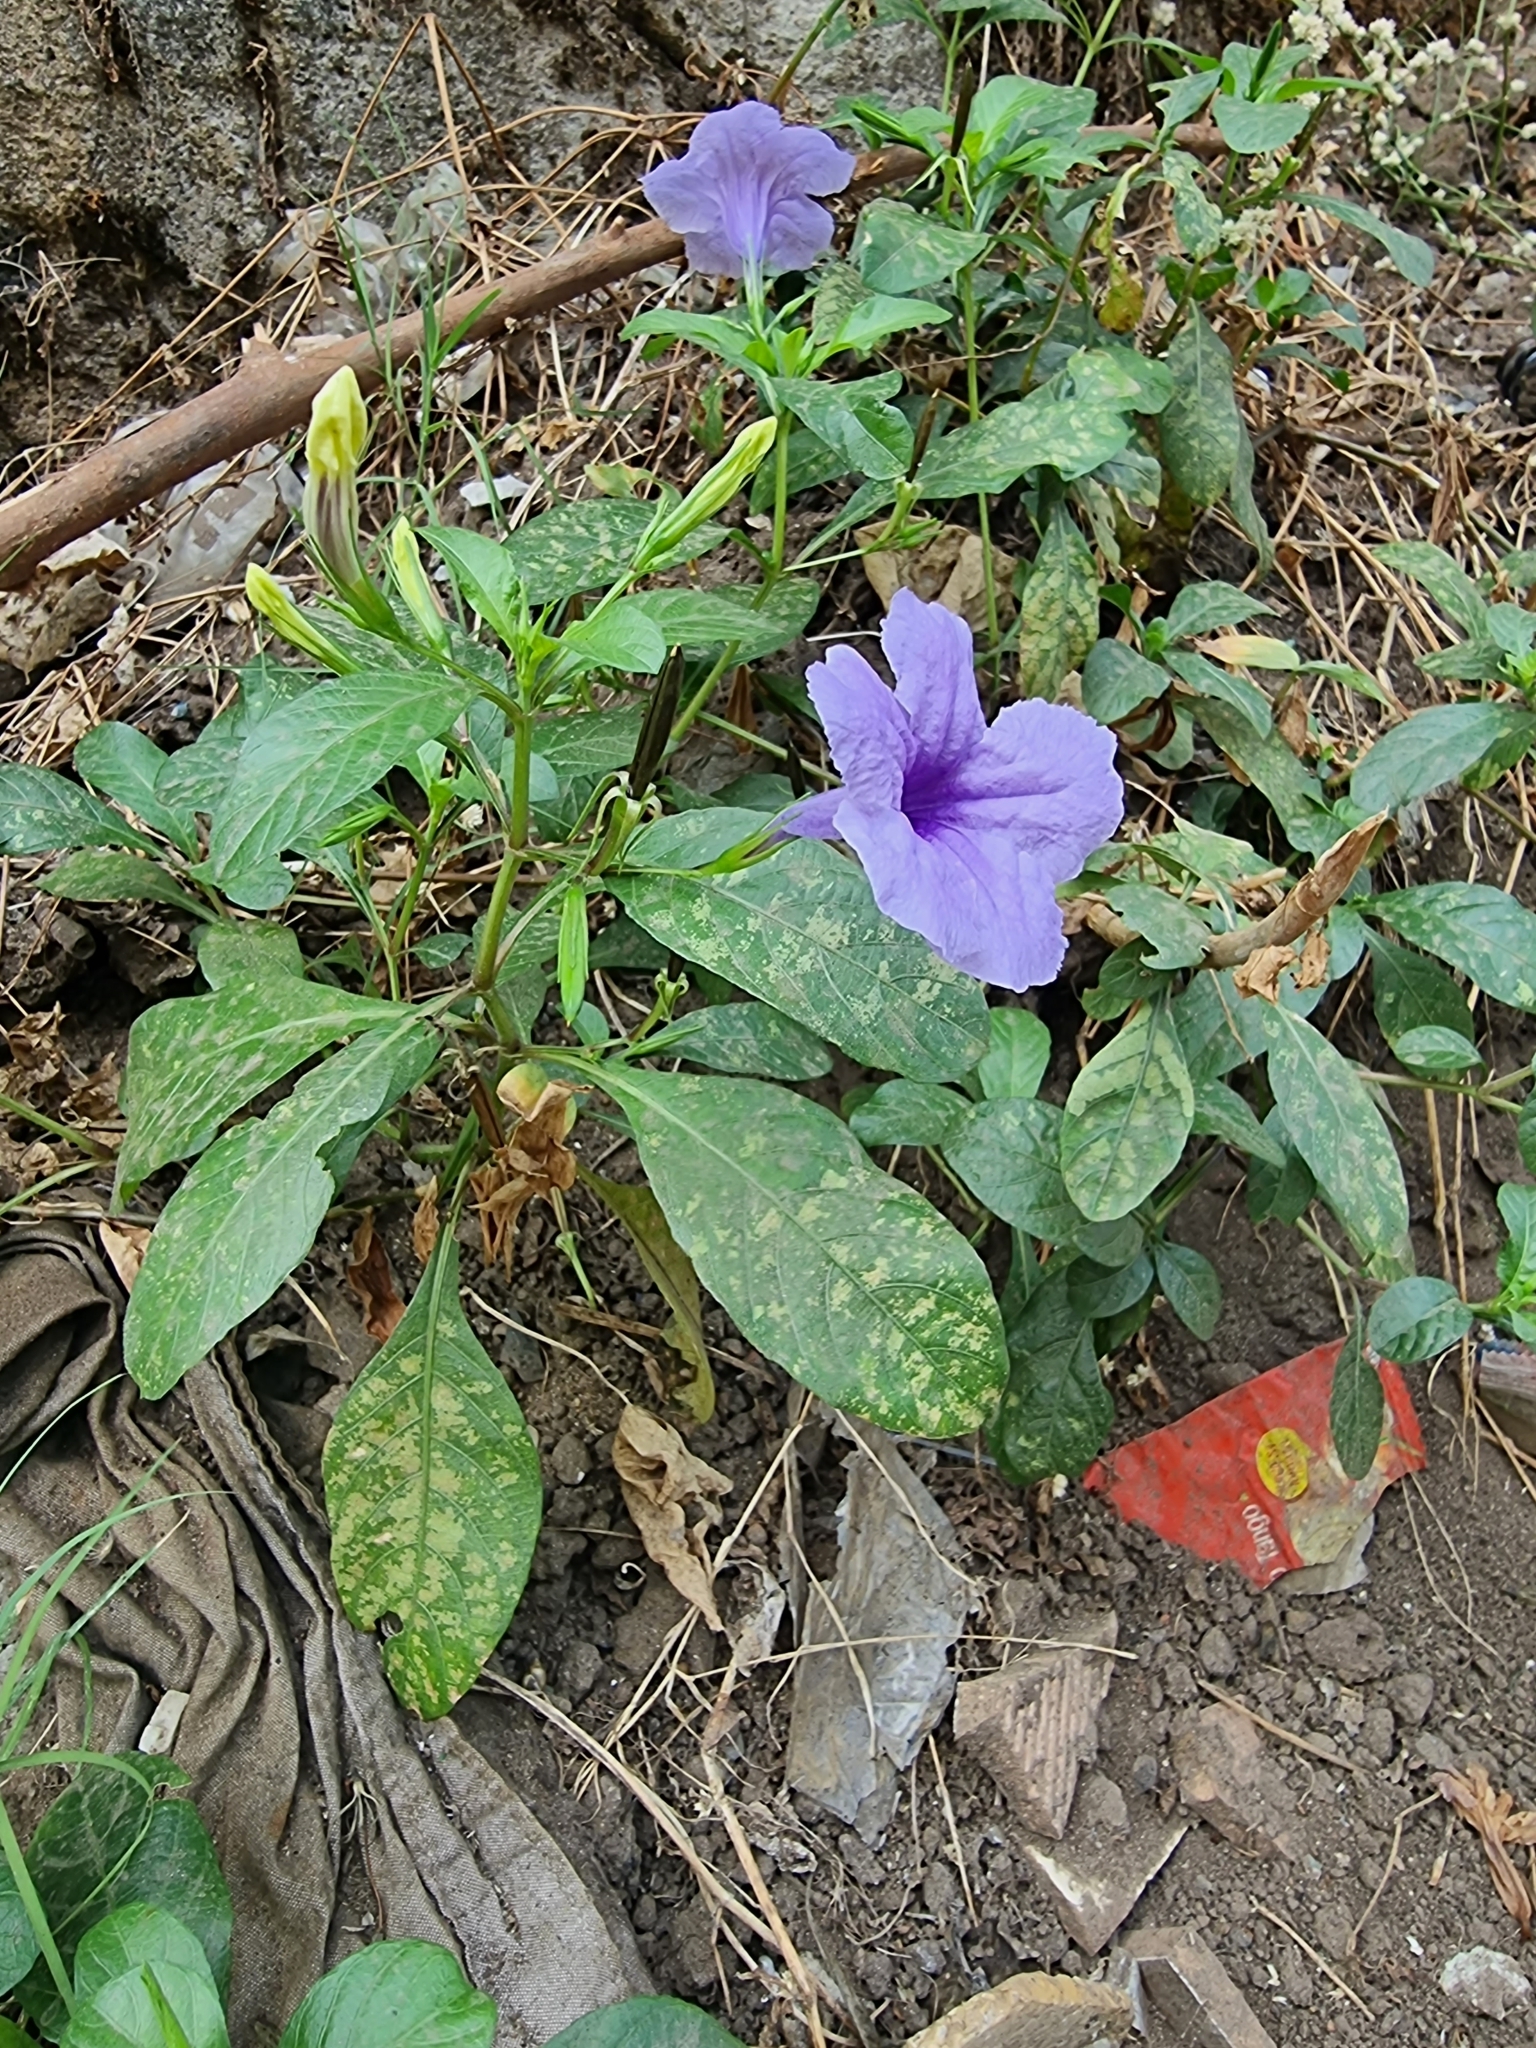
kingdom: Plantae
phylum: Tracheophyta
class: Magnoliopsida
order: Lamiales
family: Acanthaceae
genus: Ruellia
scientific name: Ruellia tuberosa
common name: Devil's bit
